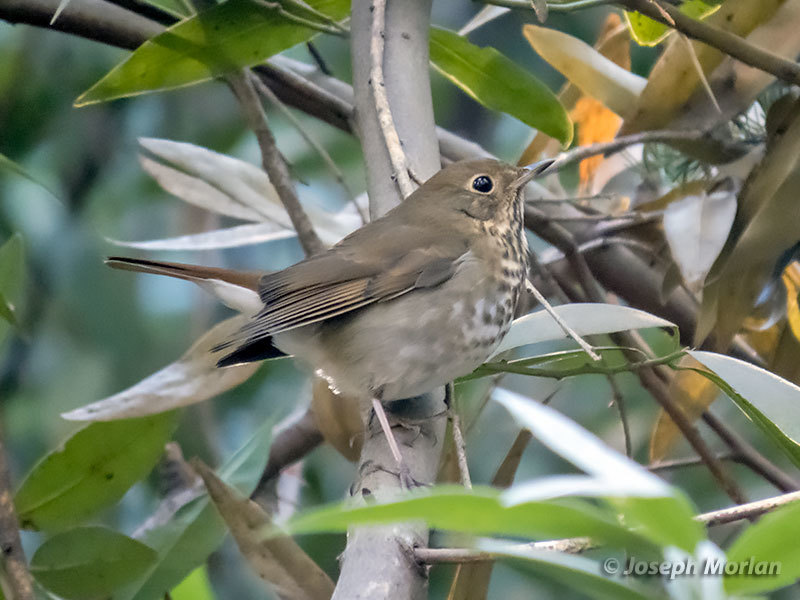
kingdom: Animalia
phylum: Chordata
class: Aves
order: Passeriformes
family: Turdidae
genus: Catharus
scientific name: Catharus guttatus
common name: Hermit thrush
